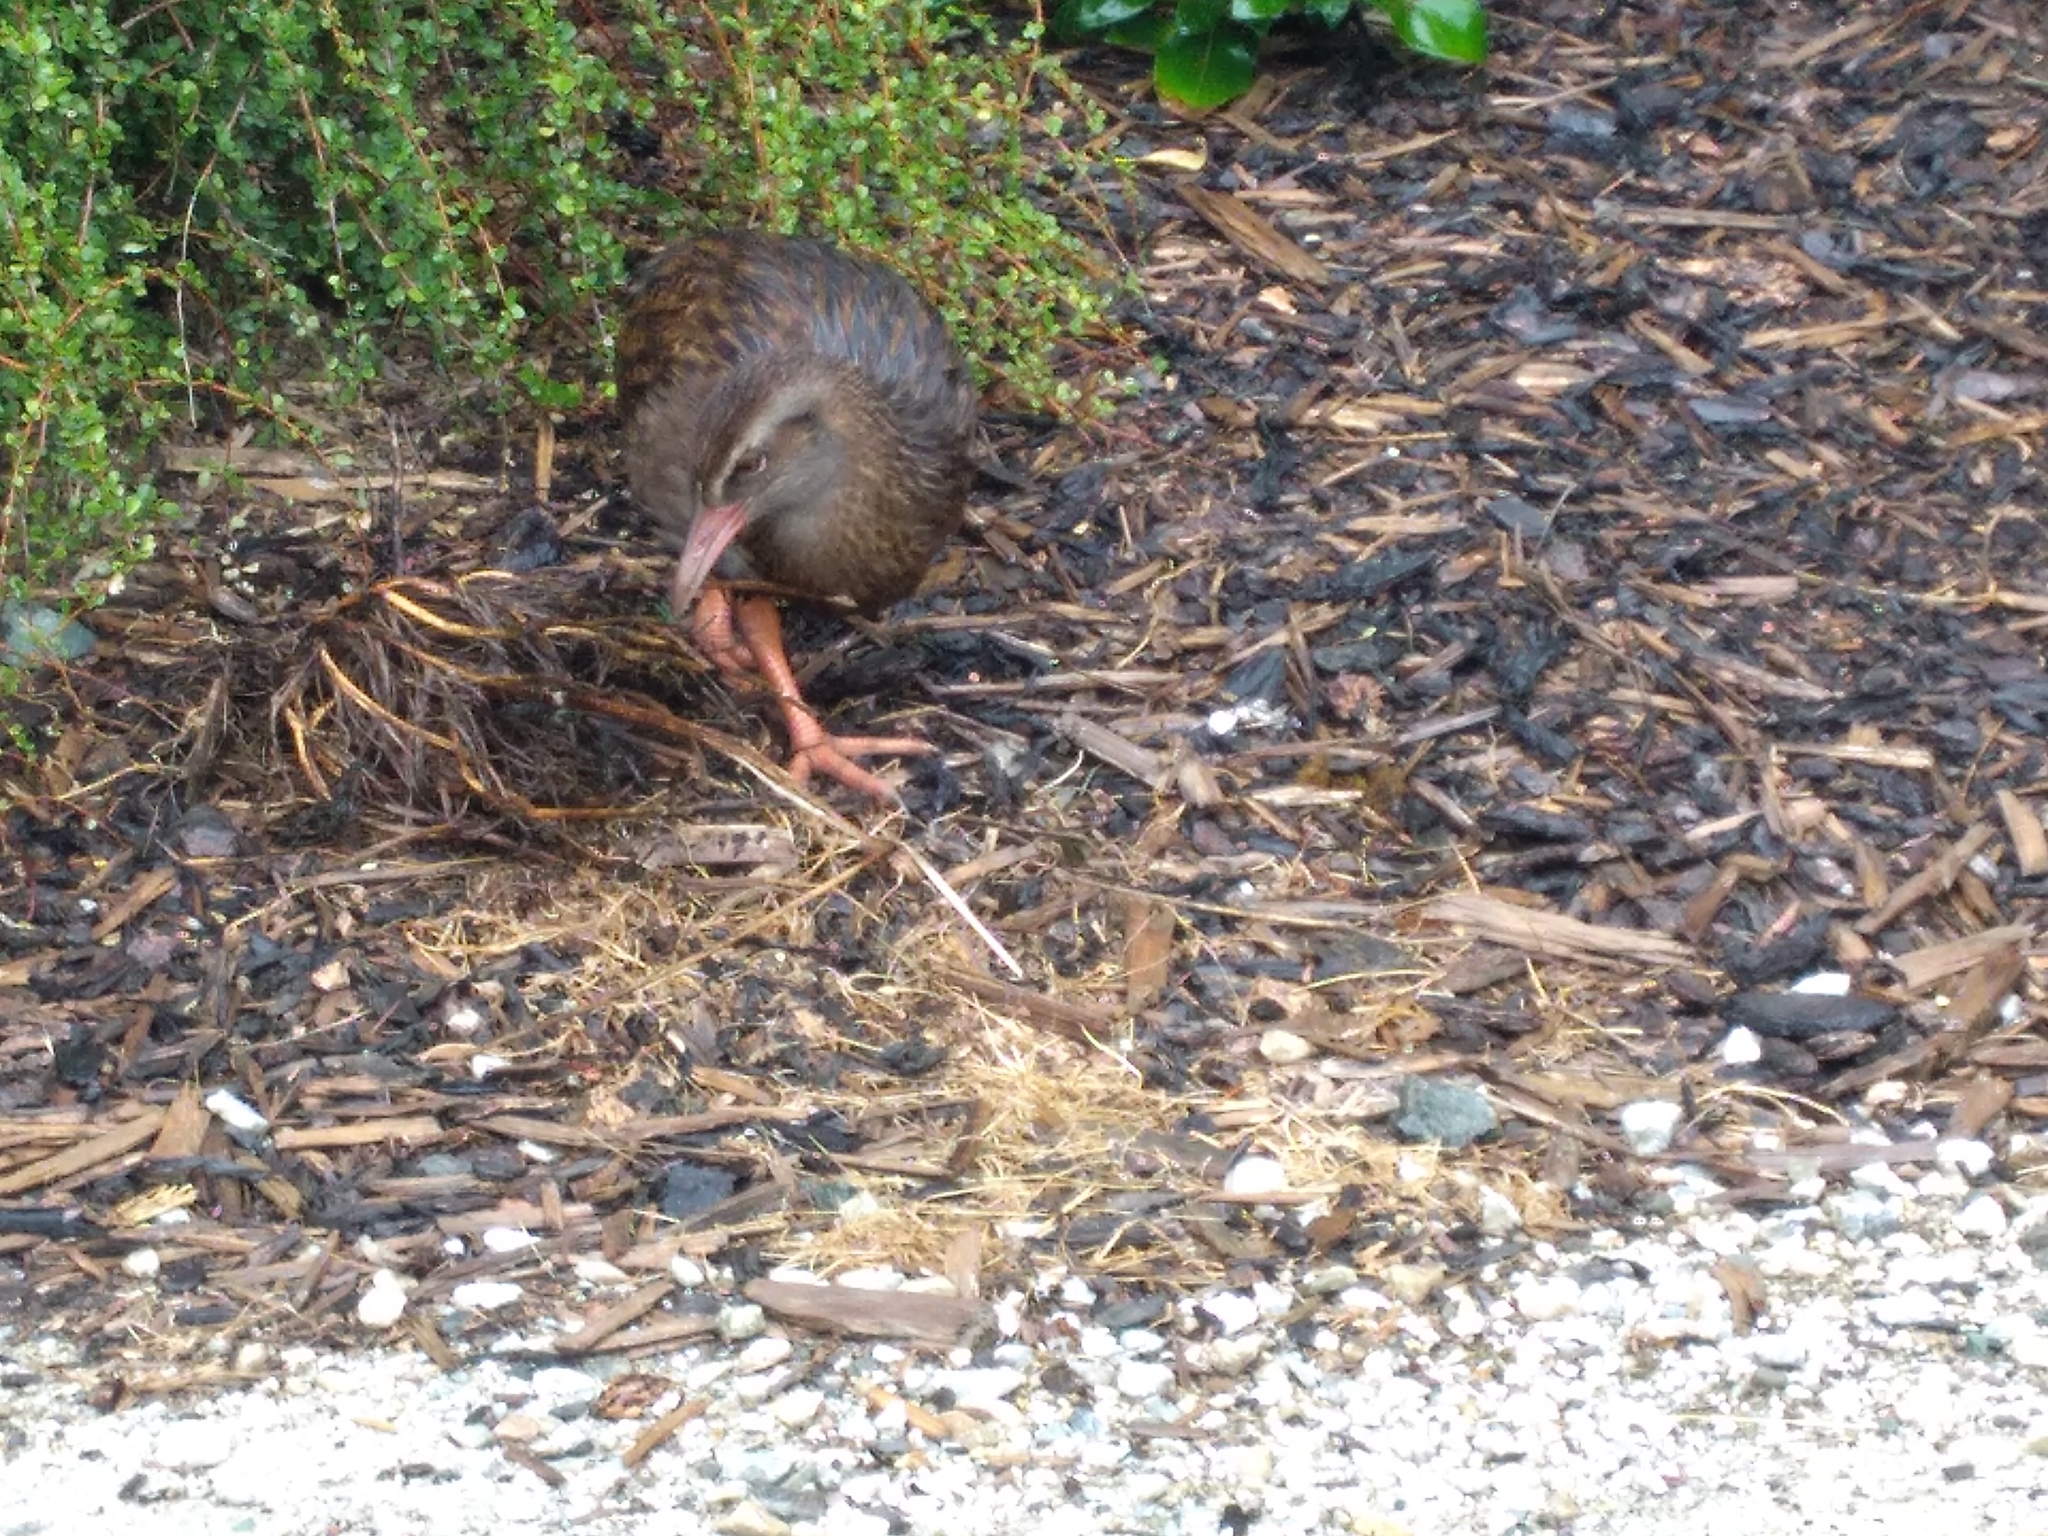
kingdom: Animalia
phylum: Chordata
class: Aves
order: Gruiformes
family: Rallidae
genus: Gallirallus
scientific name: Gallirallus australis
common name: Weka
